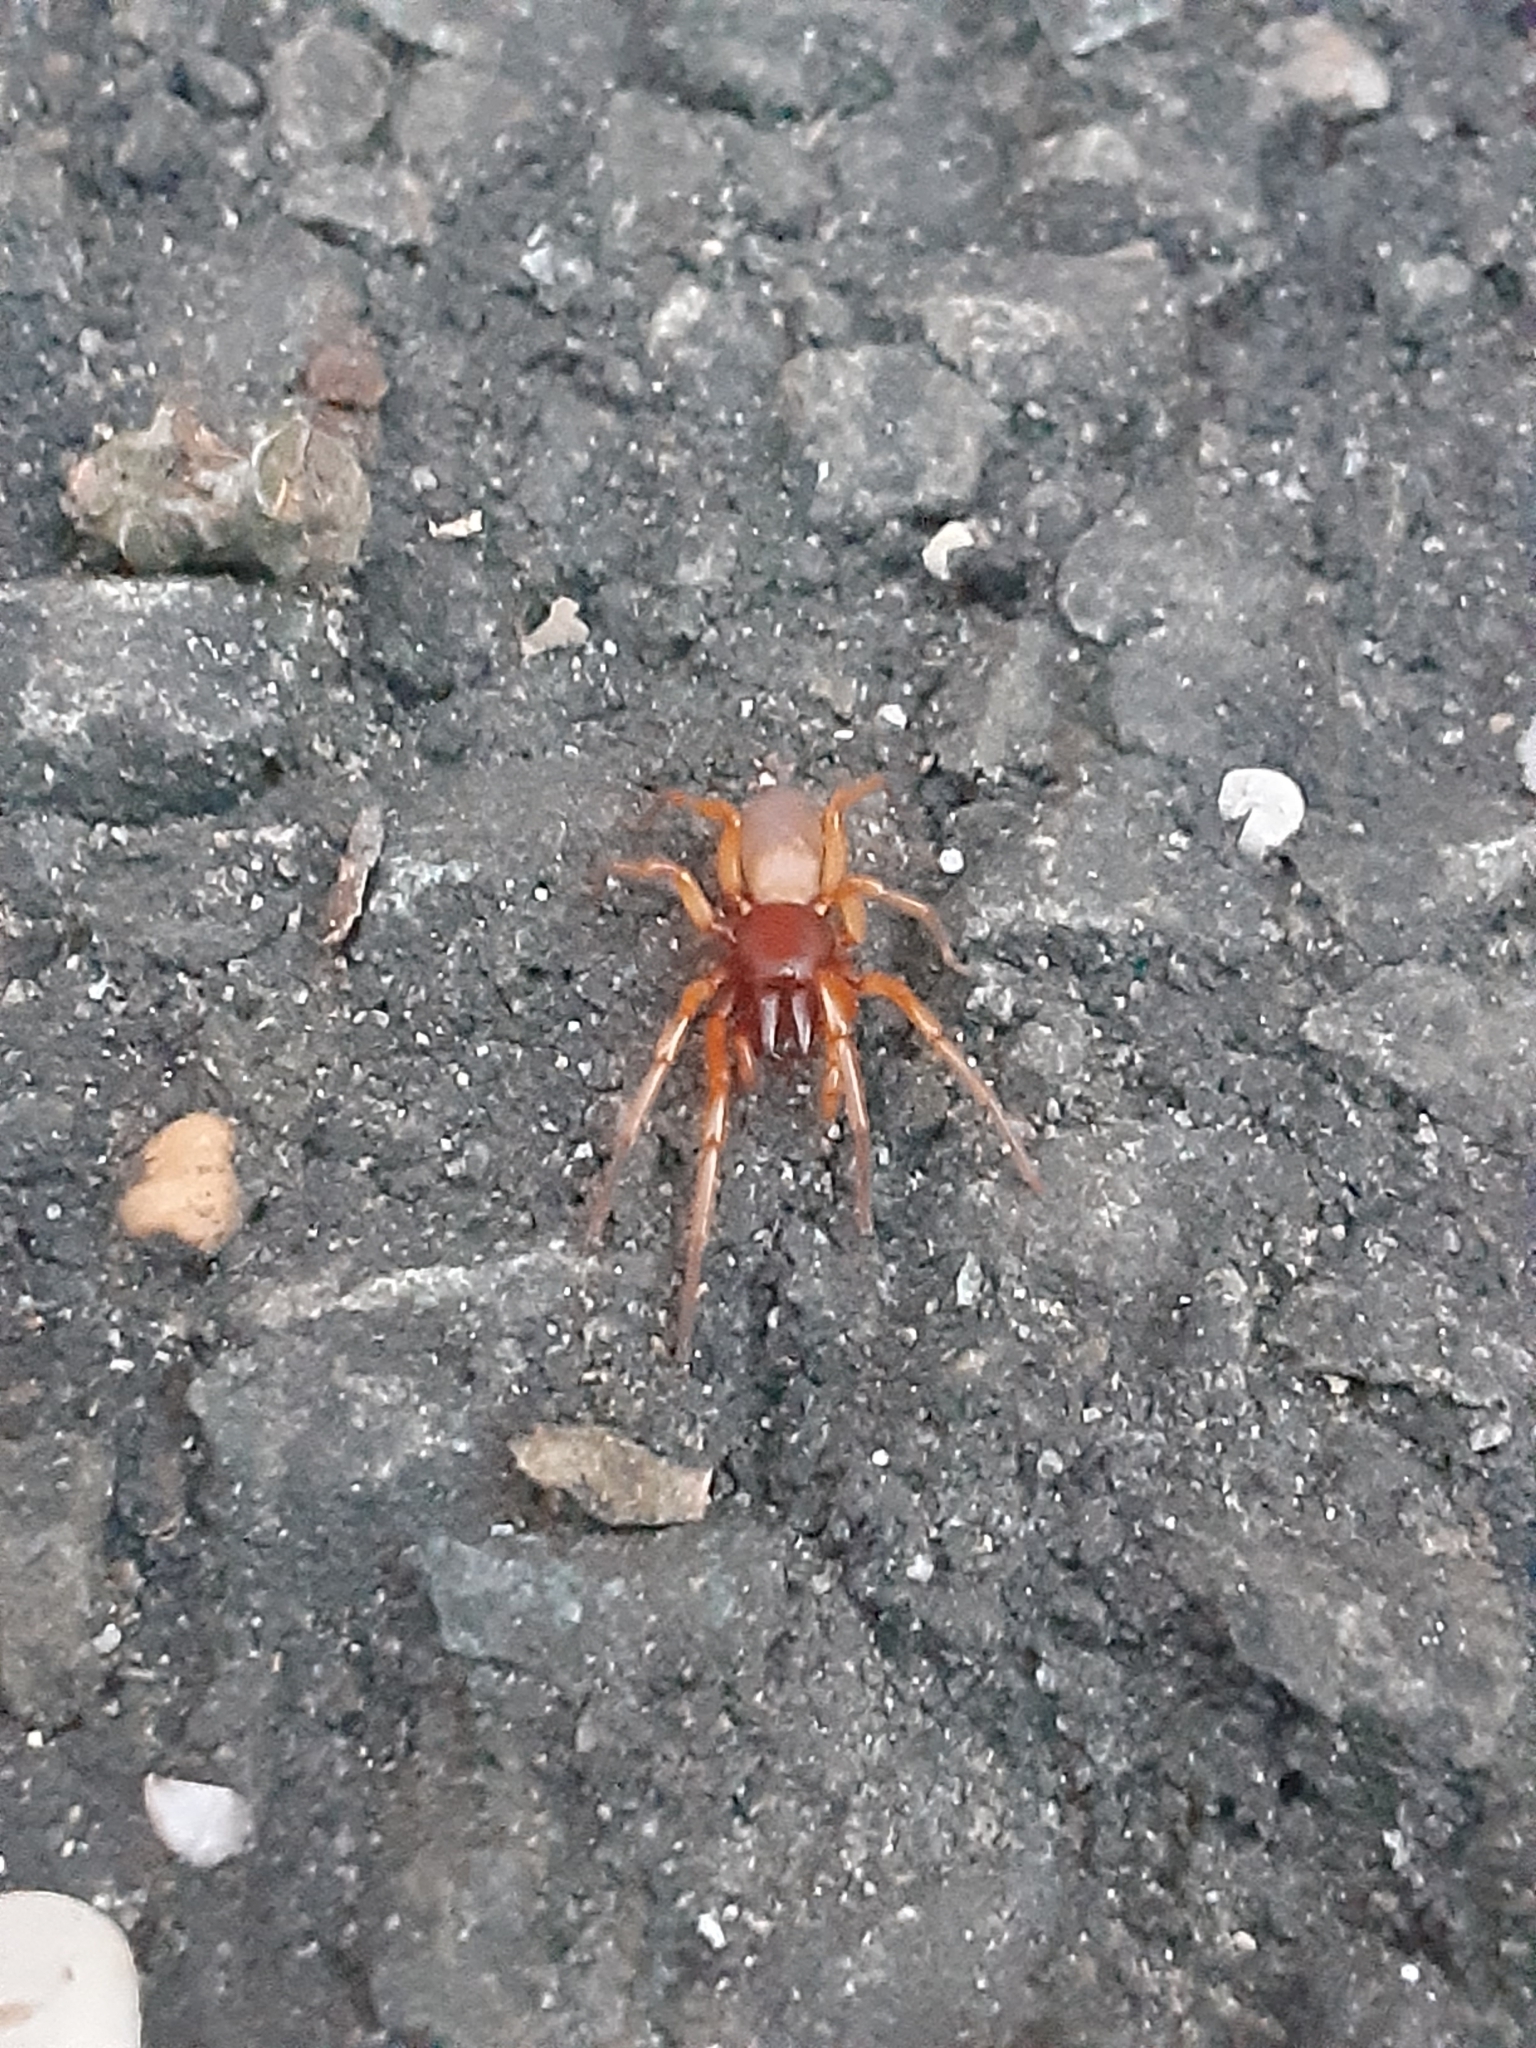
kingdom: Animalia
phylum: Arthropoda
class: Arachnida
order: Araneae
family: Dysderidae
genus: Dysdera
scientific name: Dysdera crocata
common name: Woodlouse spider
